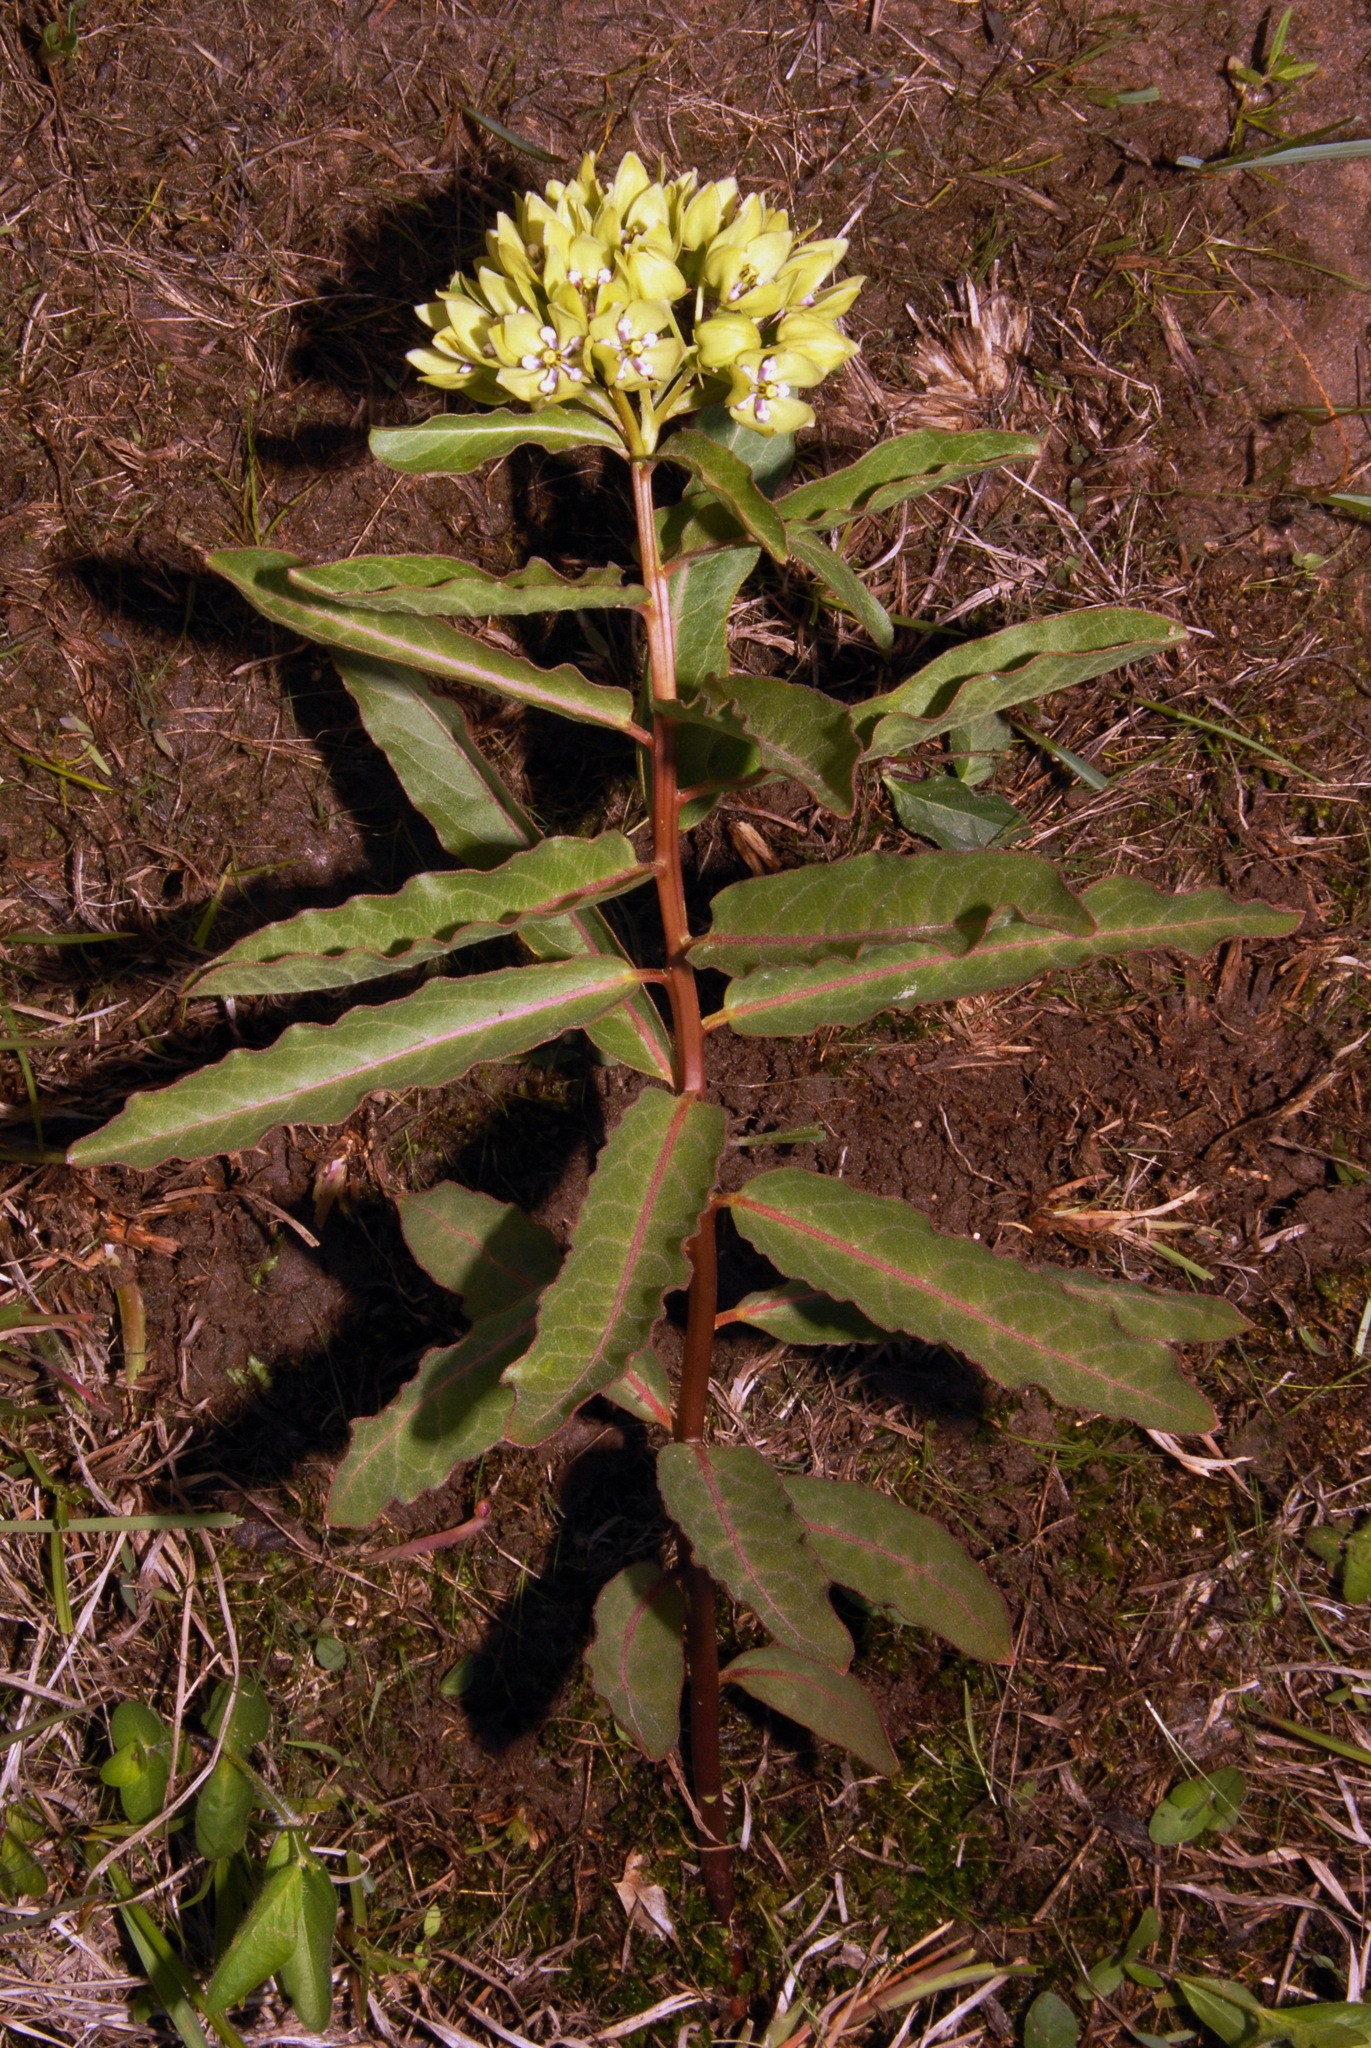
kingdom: Plantae
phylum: Tracheophyta
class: Magnoliopsida
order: Gentianales
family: Apocynaceae
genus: Asclepias
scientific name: Asclepias viridis
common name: Antelope-horns
